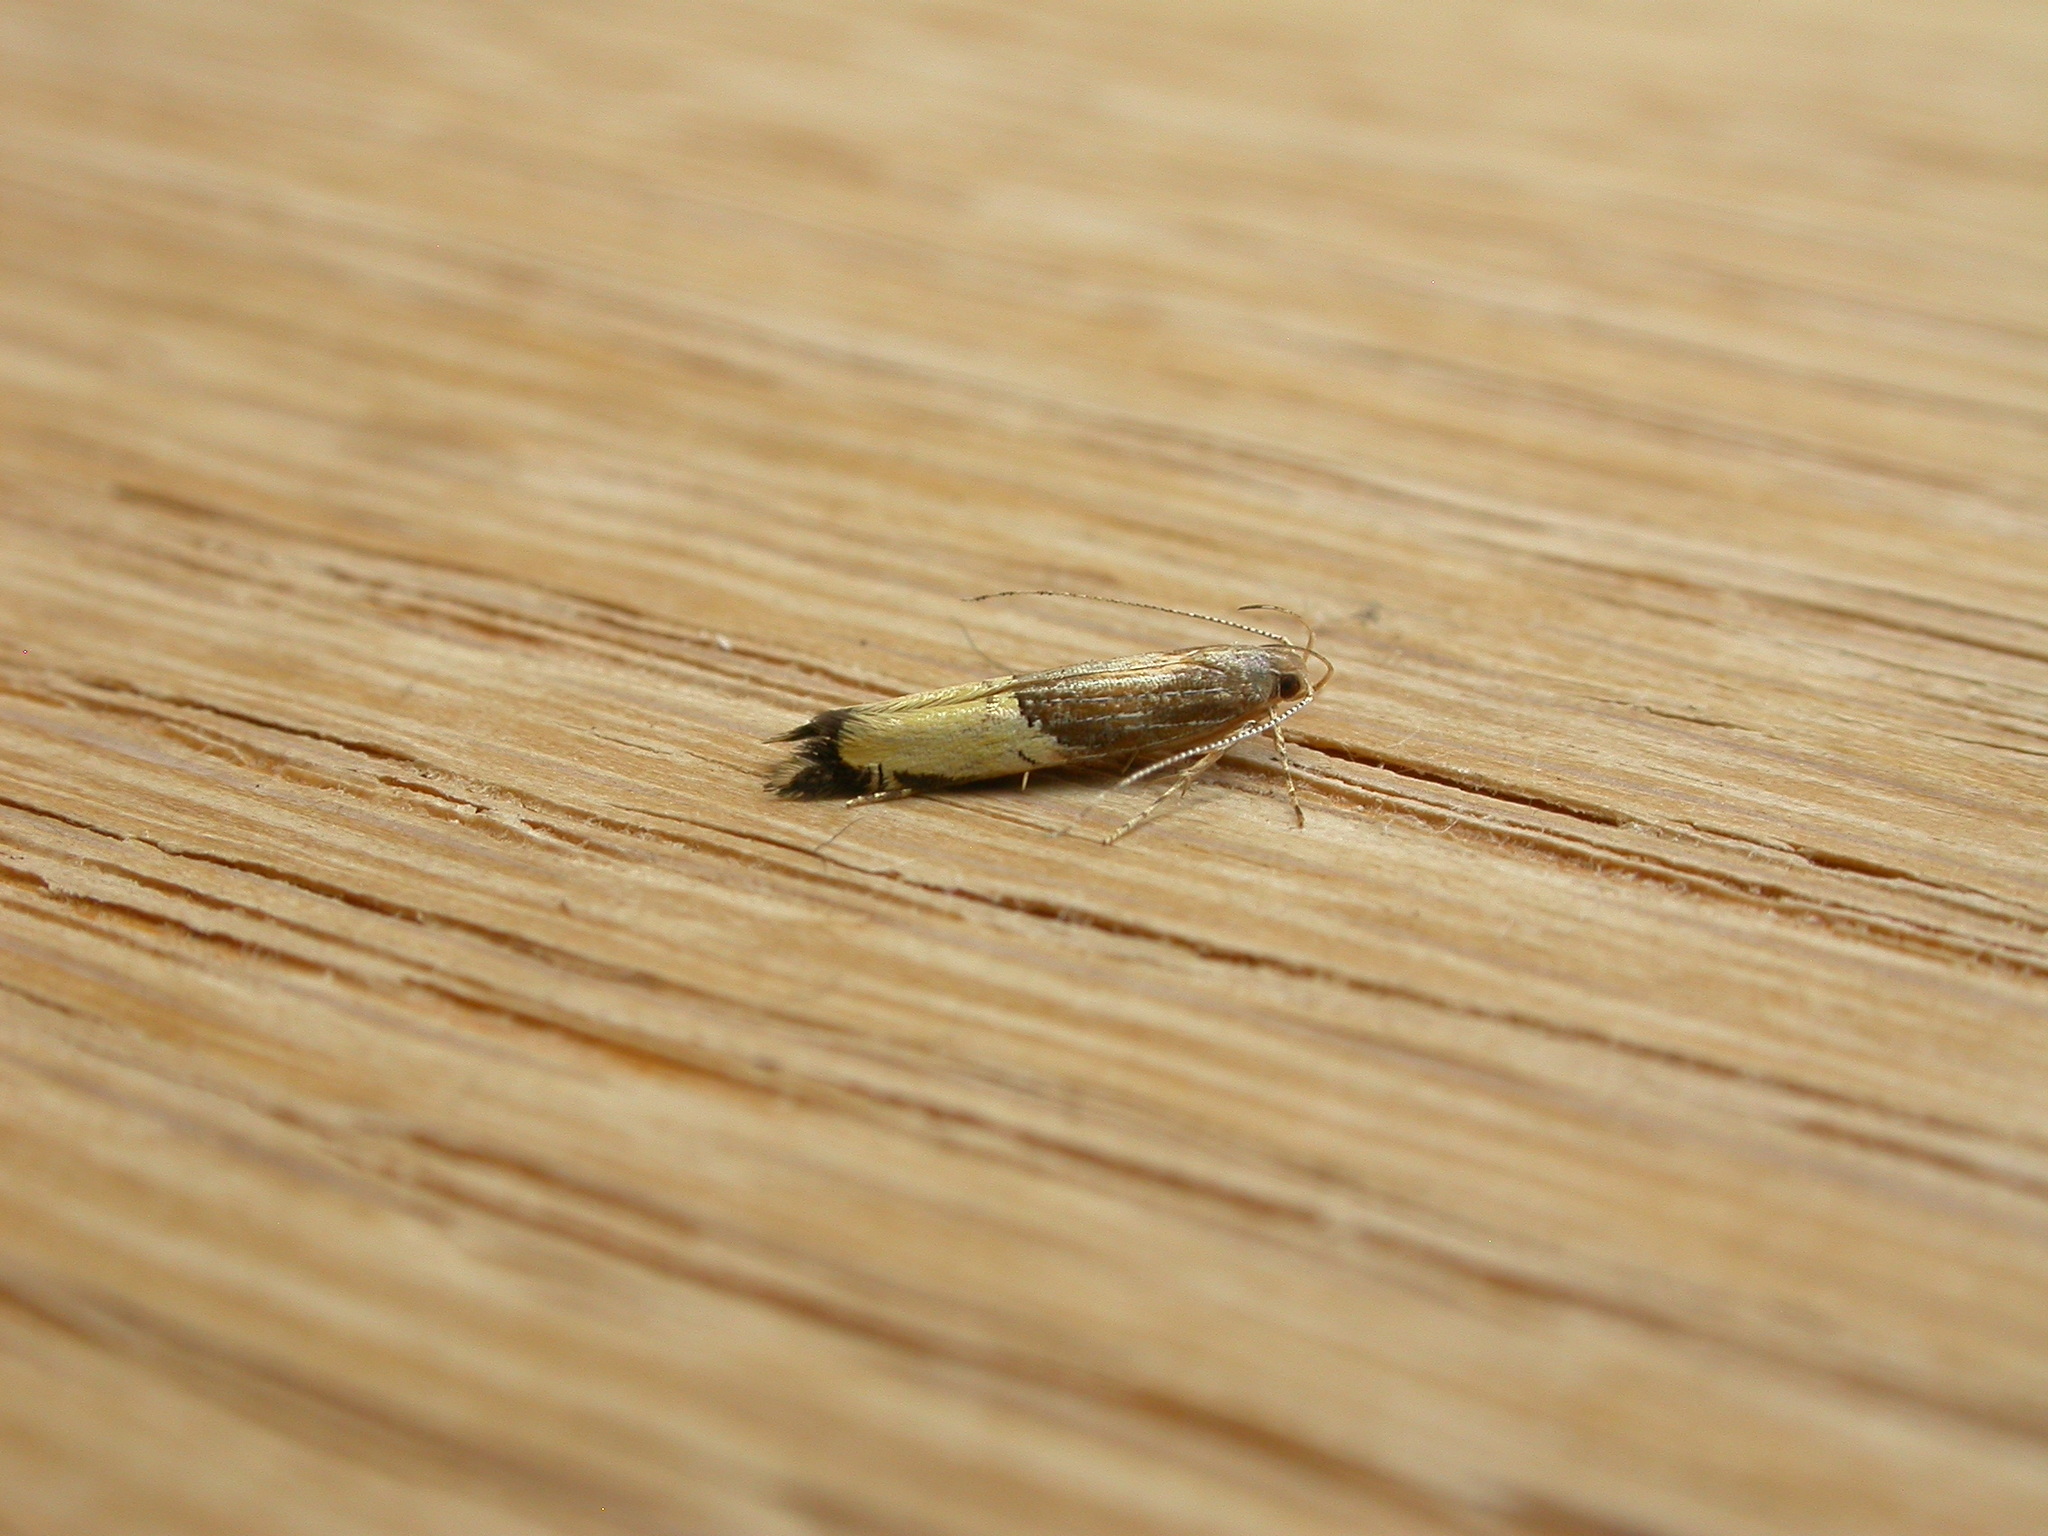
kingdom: Animalia
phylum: Arthropoda
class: Insecta
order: Lepidoptera
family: Cosmopterigidae
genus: Labdia
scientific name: Labdia deliciosella
